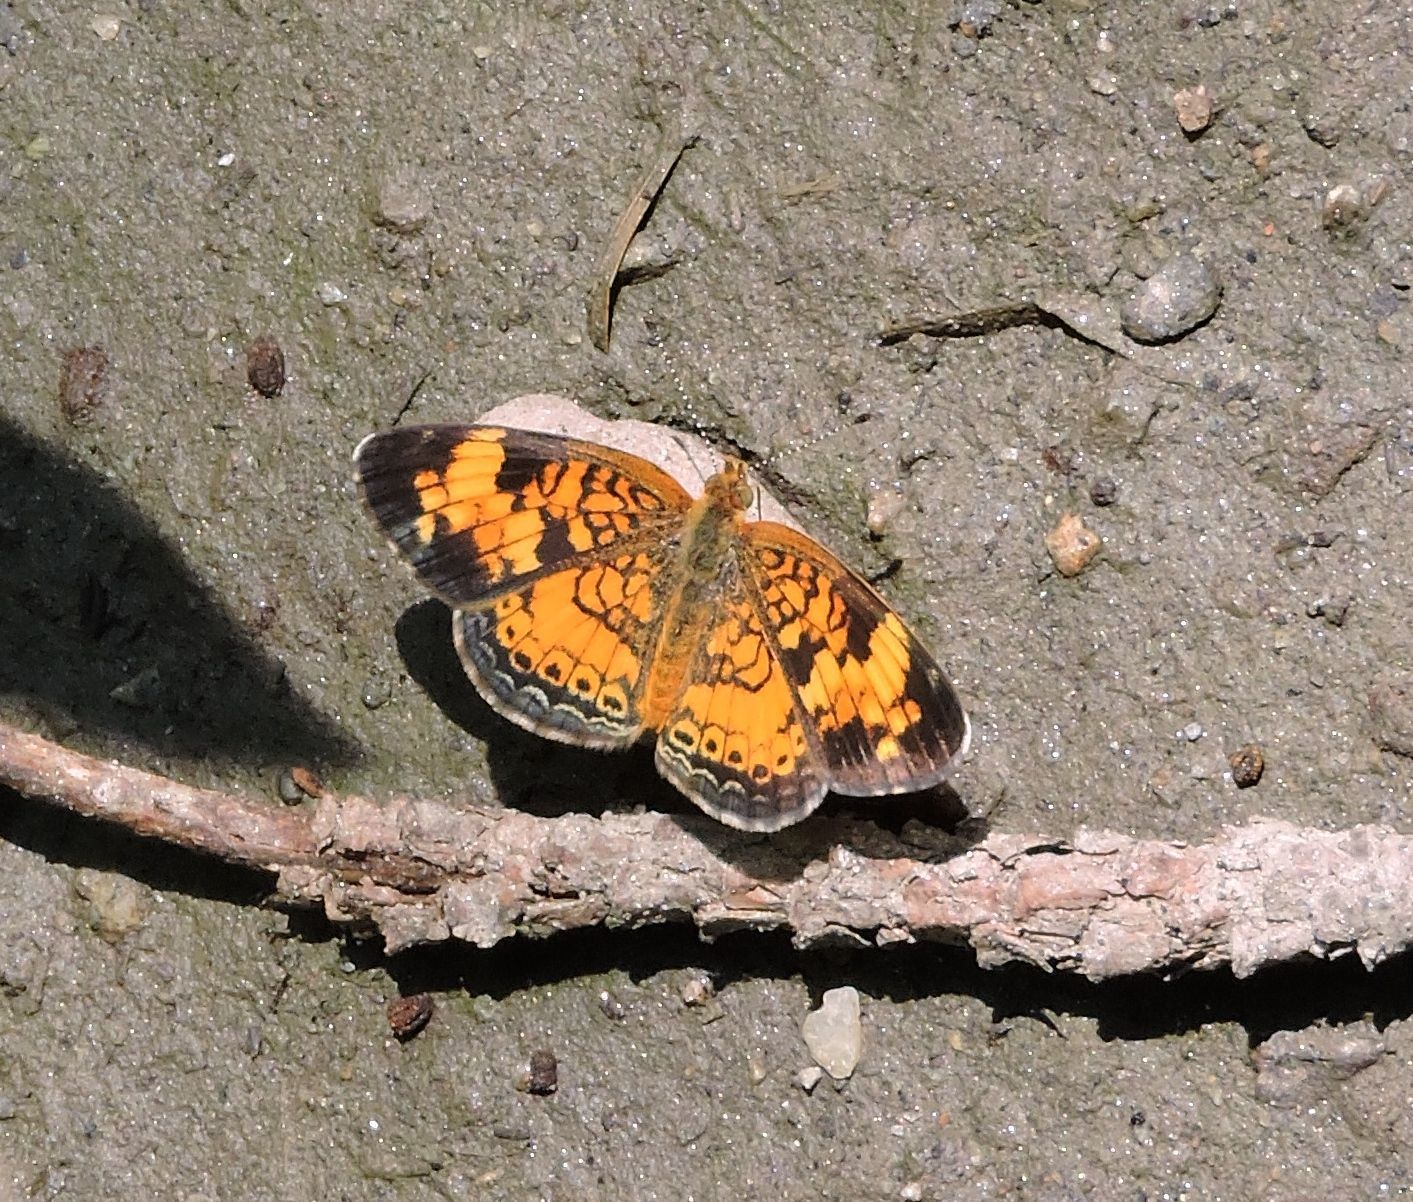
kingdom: Animalia
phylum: Arthropoda
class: Insecta
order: Lepidoptera
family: Nymphalidae
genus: Phyciodes
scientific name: Phyciodes tharos
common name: Pearl crescent
